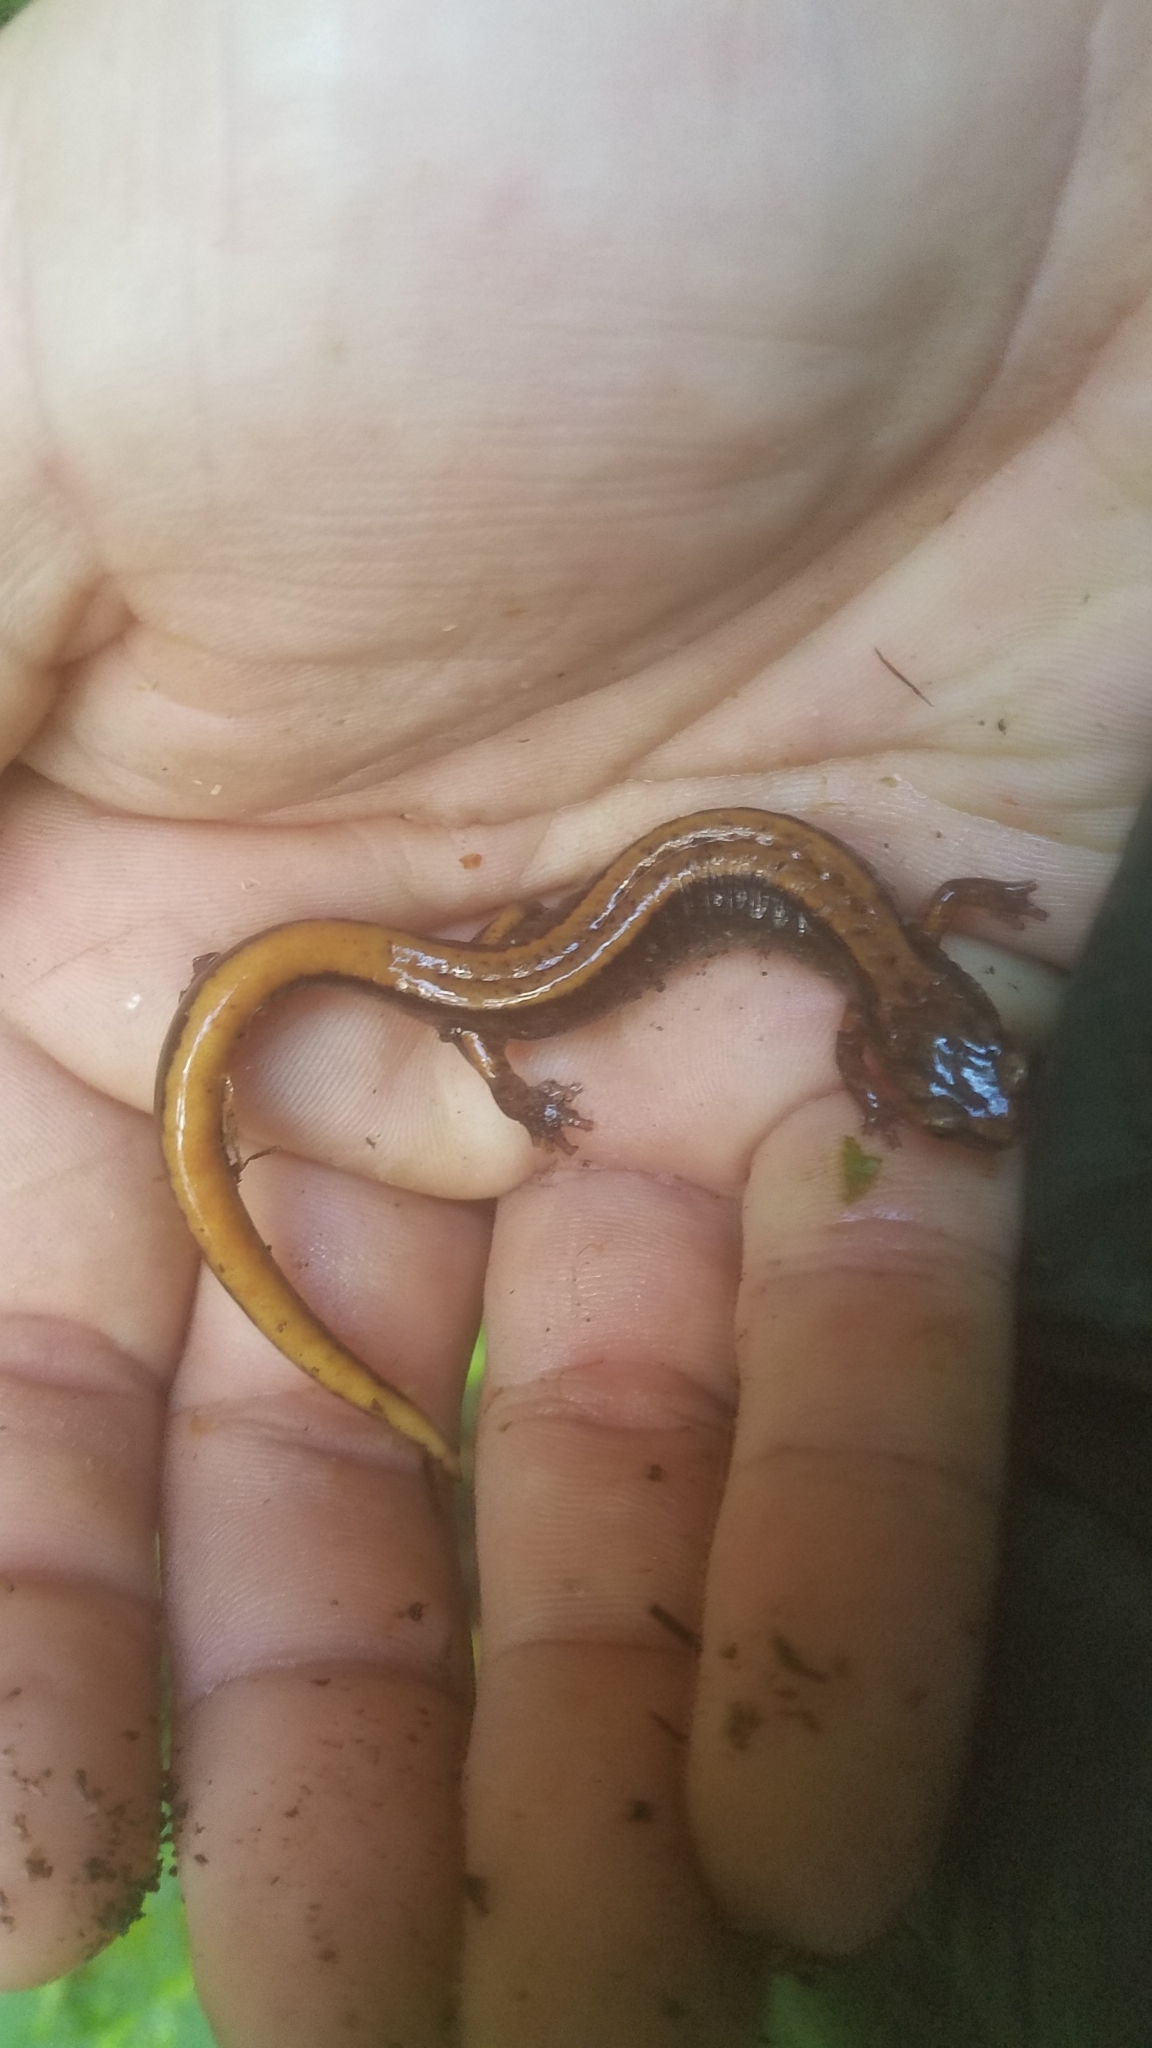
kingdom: Animalia
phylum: Chordata
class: Amphibia
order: Caudata
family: Plethodontidae
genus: Plethodon
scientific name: Plethodon vehiculum
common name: Western red-backed salamander
